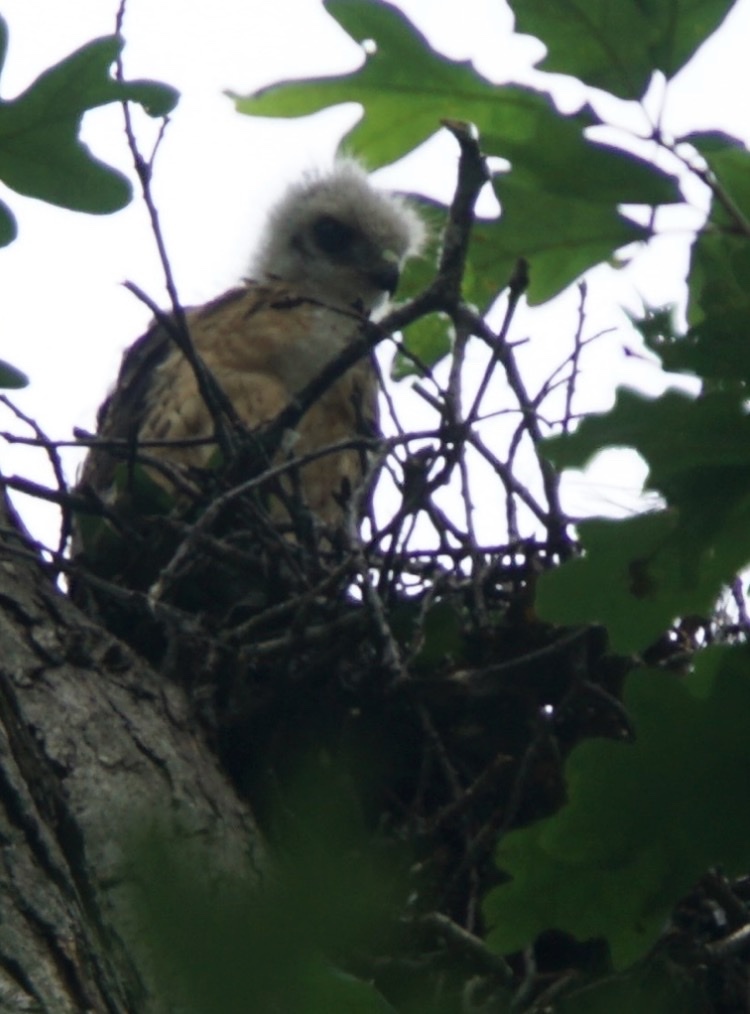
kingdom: Animalia
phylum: Chordata
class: Aves
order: Accipitriformes
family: Accipitridae
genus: Buteo
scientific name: Buteo jamaicensis
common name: Red-tailed hawk
